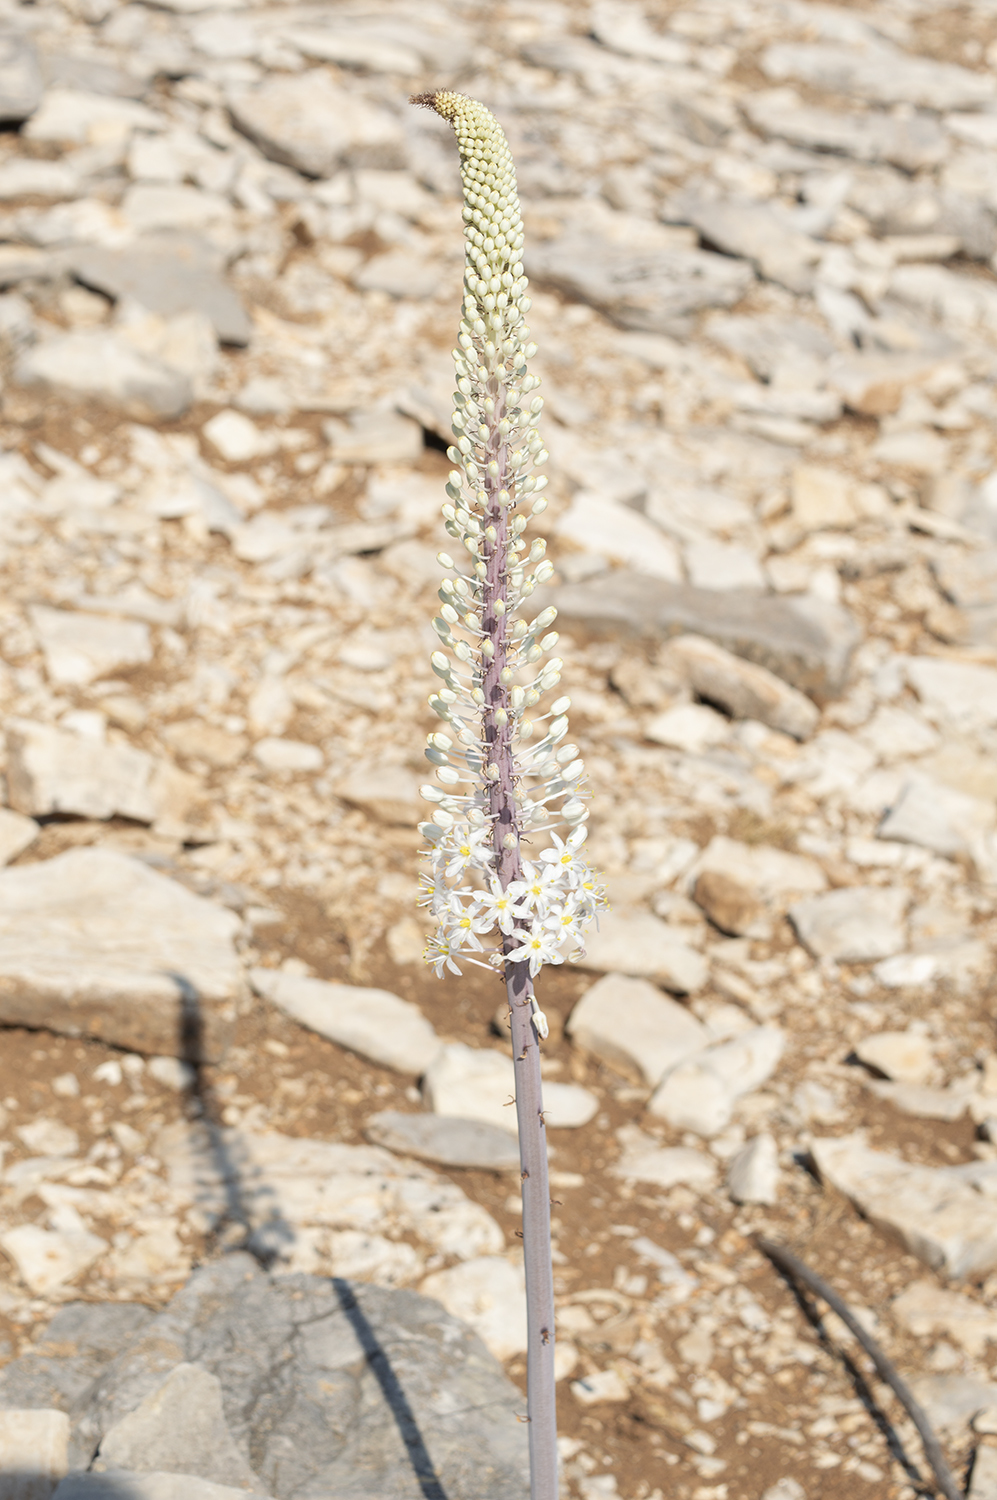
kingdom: Plantae
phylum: Tracheophyta
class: Liliopsida
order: Asparagales
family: Asparagaceae
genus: Drimia
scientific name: Drimia numidica
